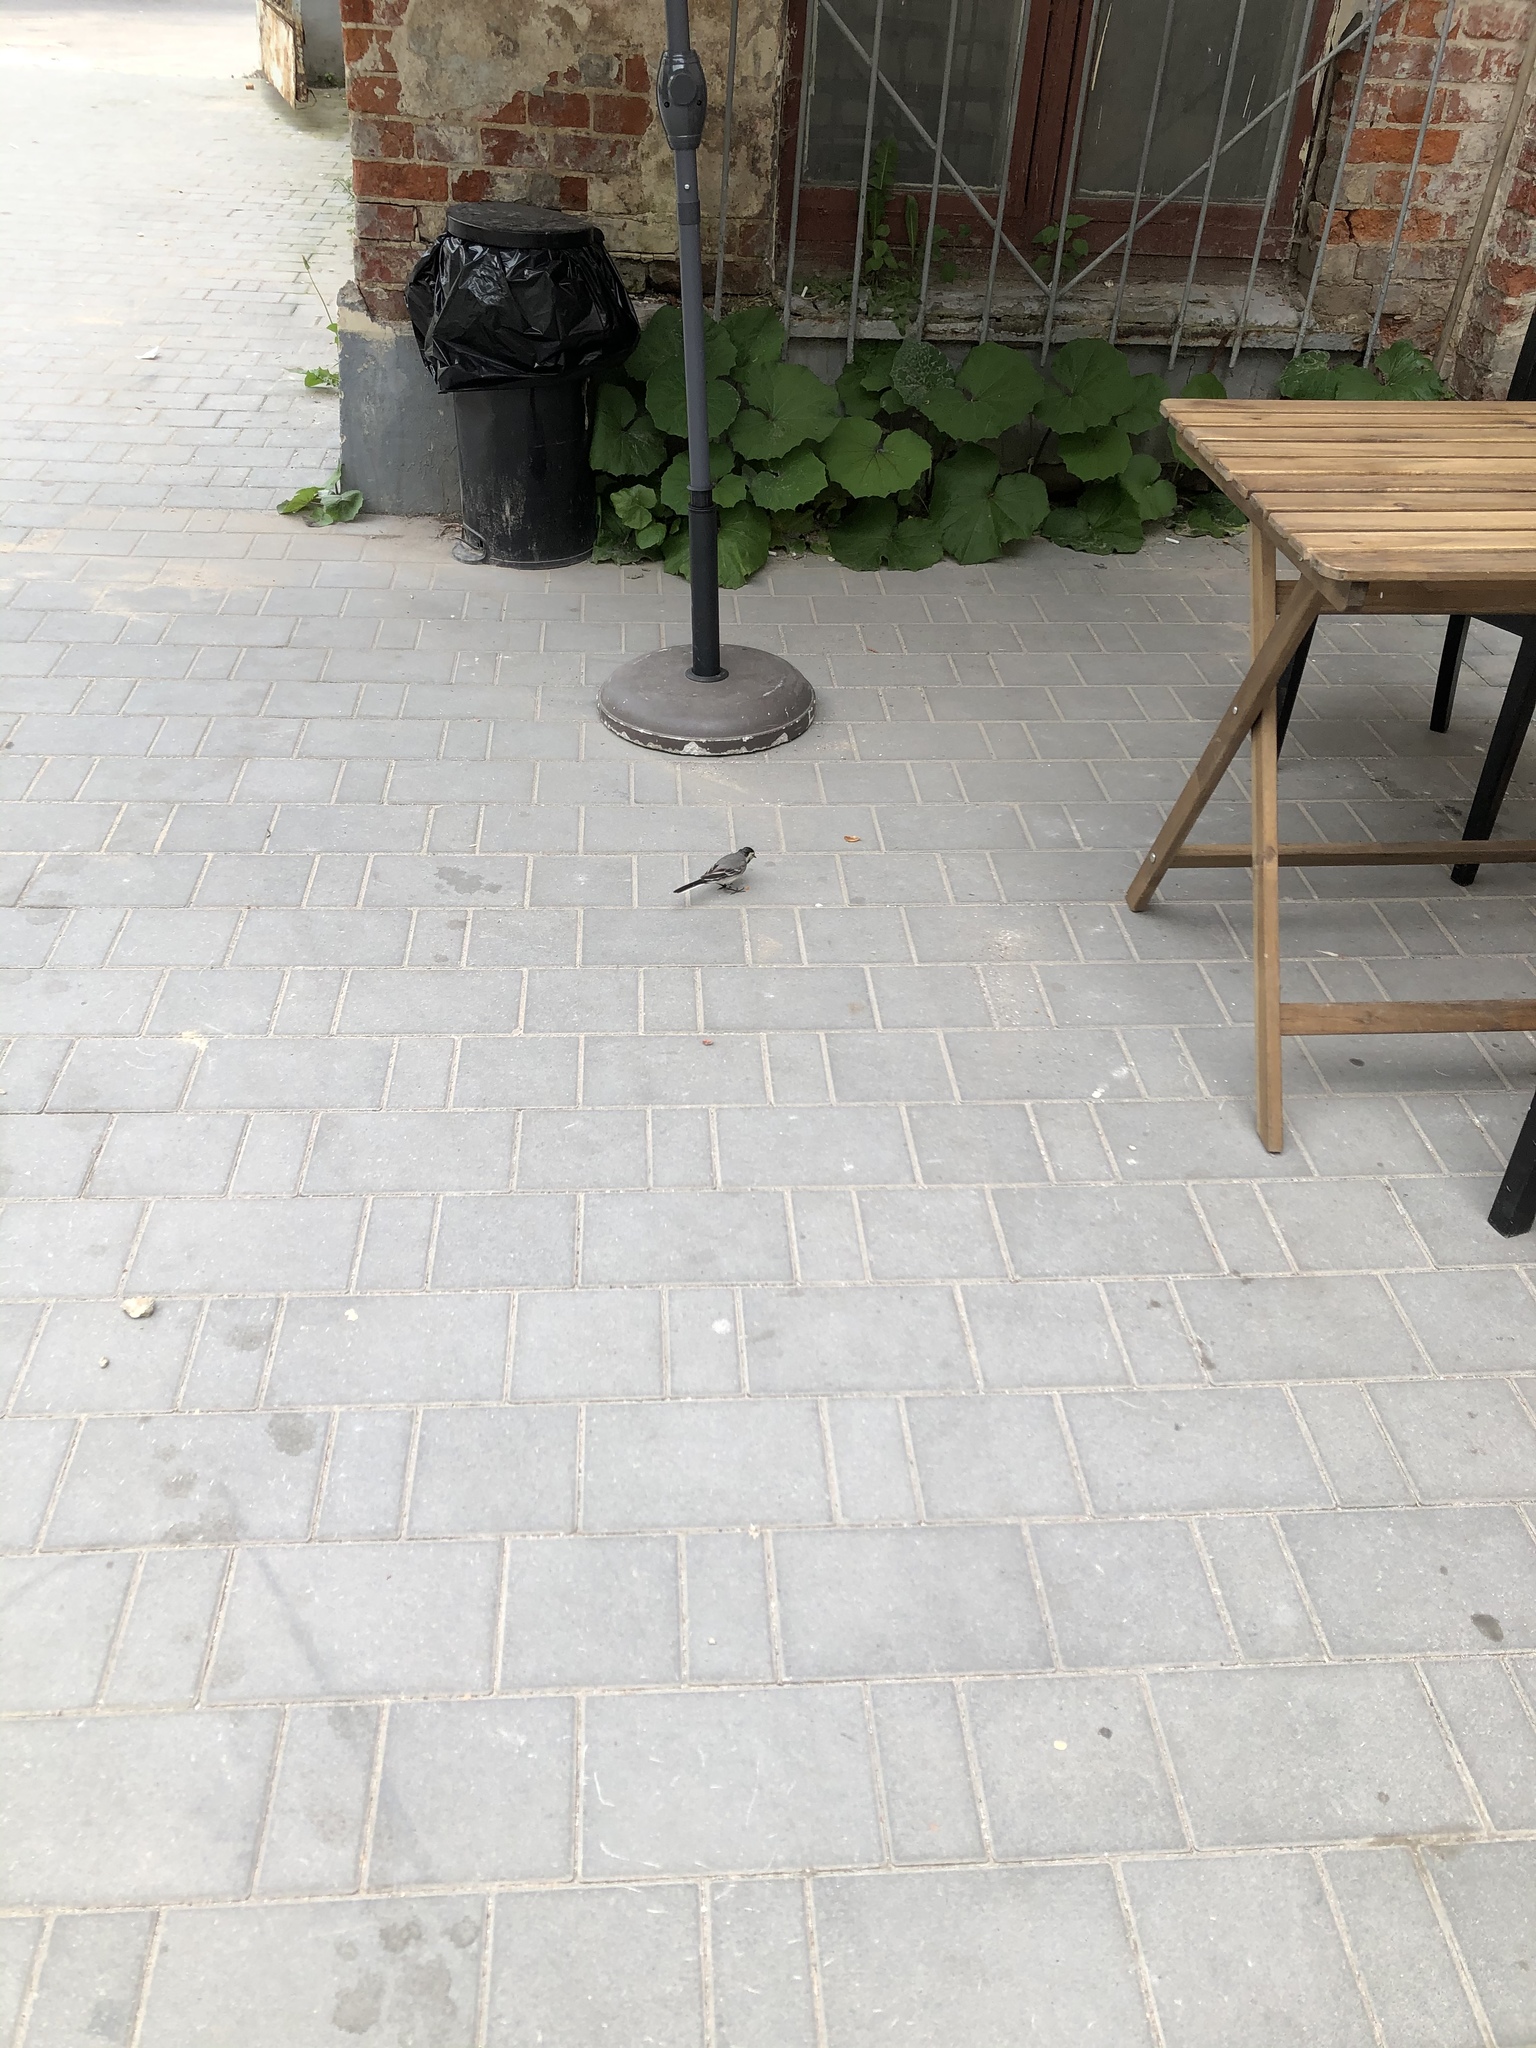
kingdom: Animalia
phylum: Chordata
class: Aves
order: Passeriformes
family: Motacillidae
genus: Motacilla
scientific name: Motacilla alba
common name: White wagtail
